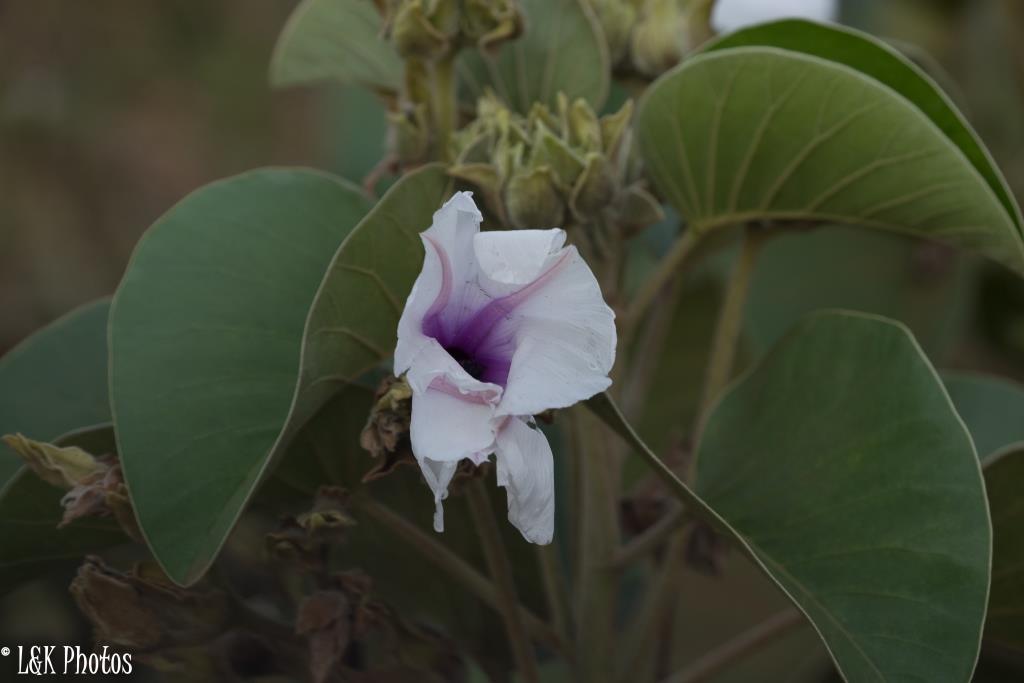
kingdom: Plantae
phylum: Tracheophyta
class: Magnoliopsida
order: Solanales
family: Convolvulaceae
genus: Ipomoea
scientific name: Ipomoea hildebrandtii
